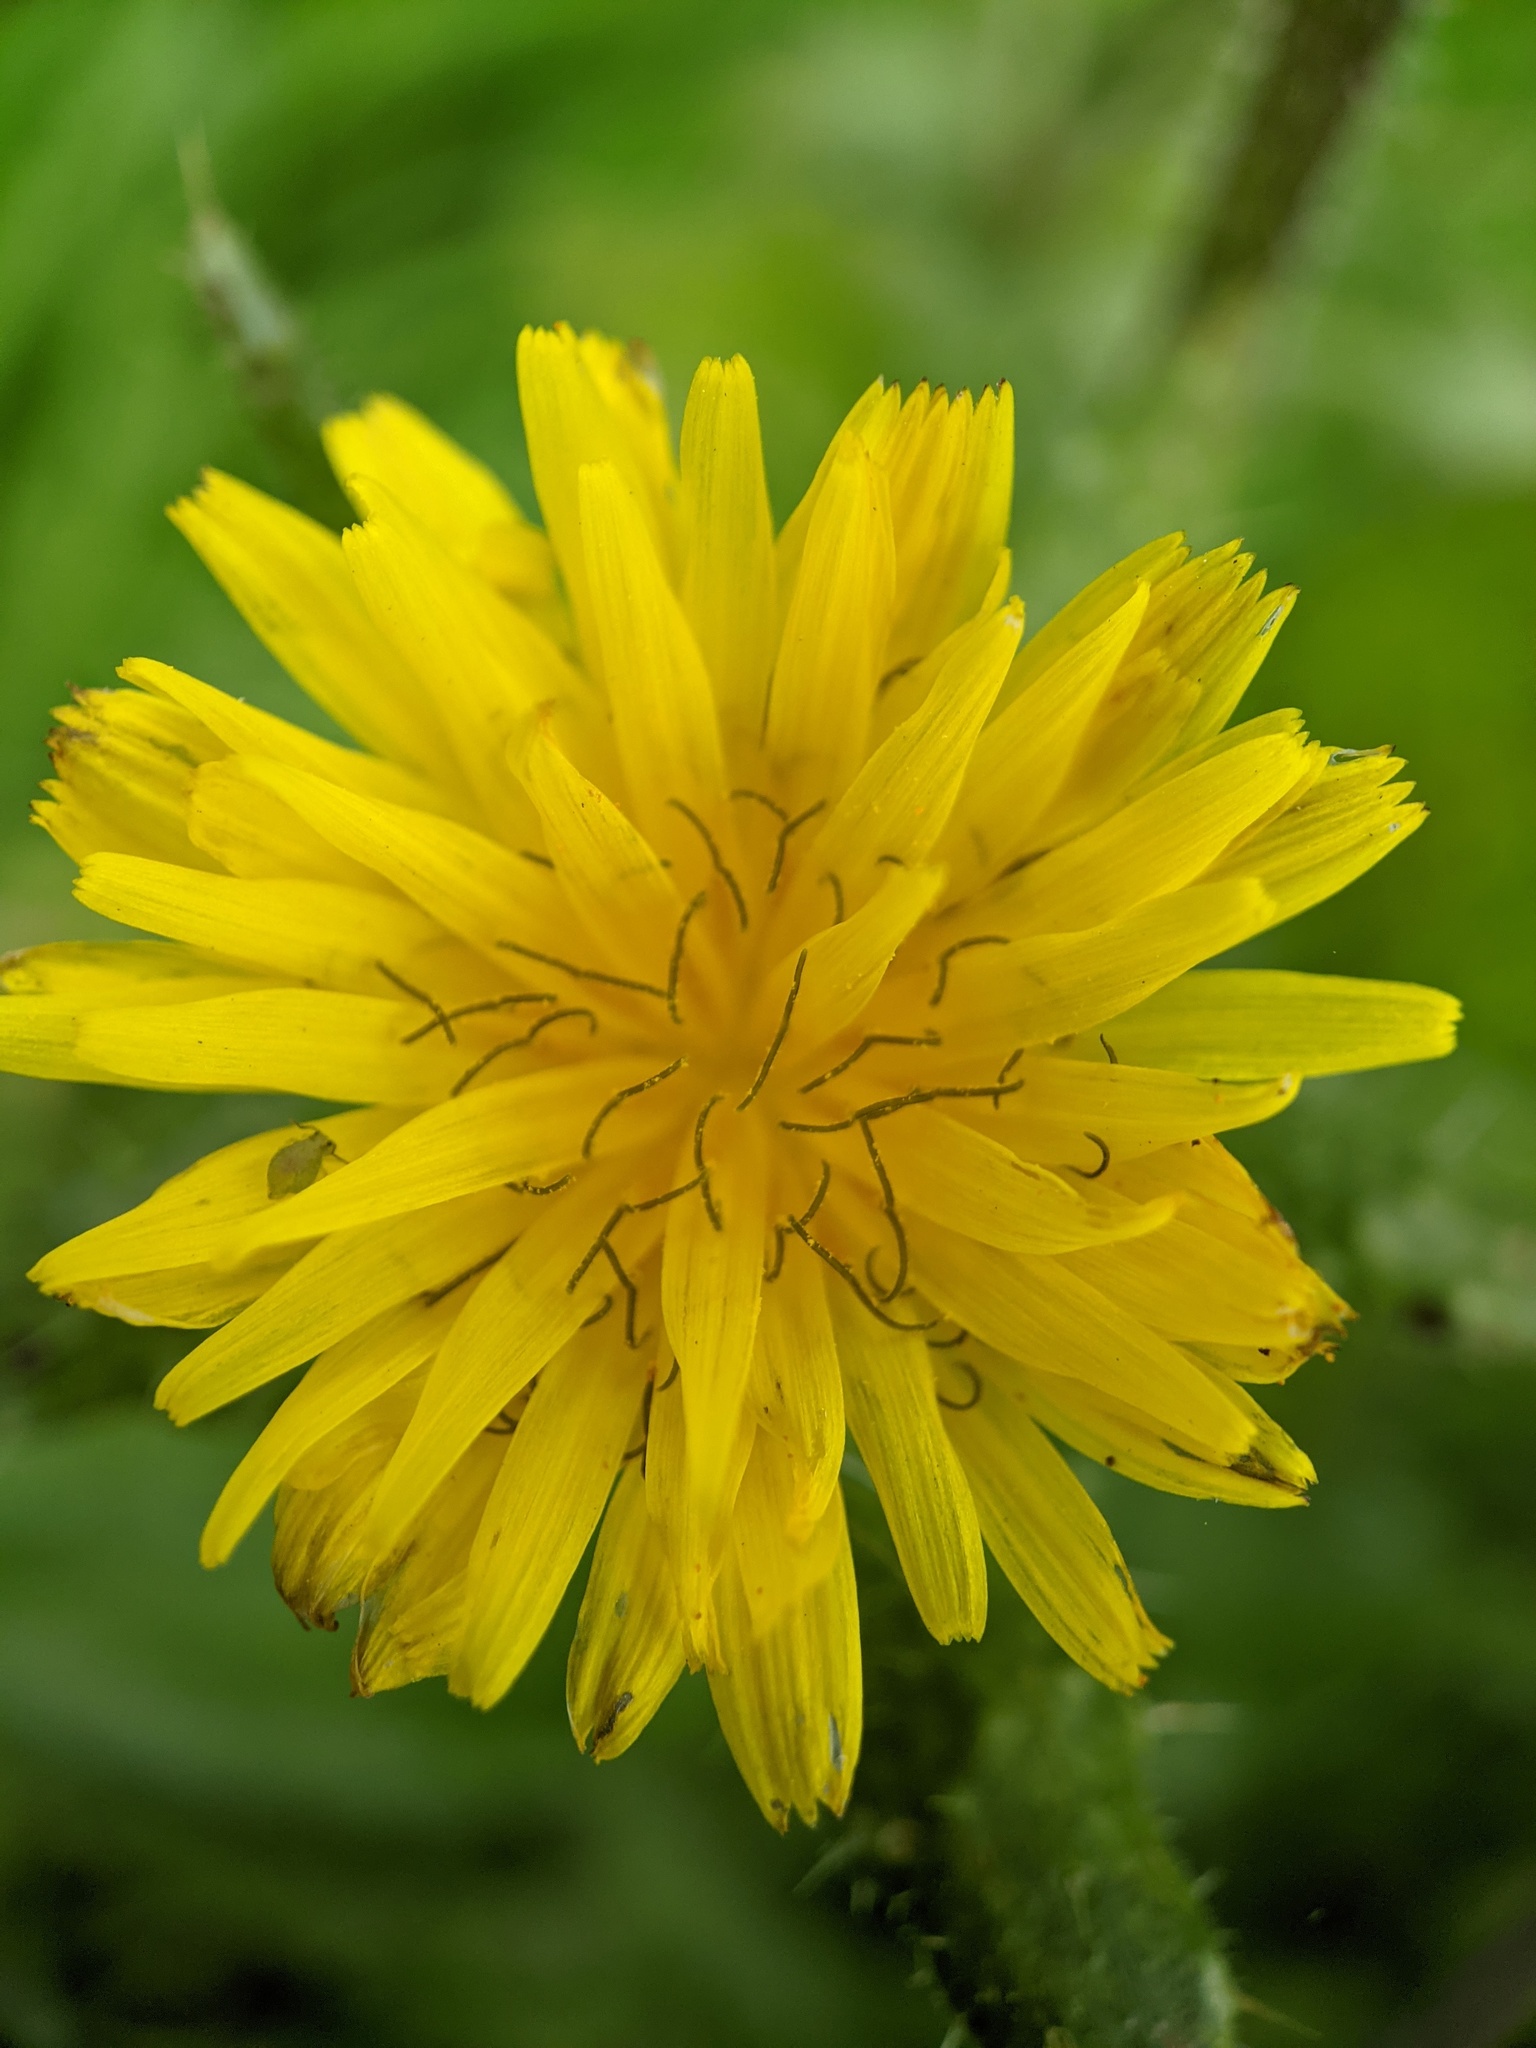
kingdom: Plantae
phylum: Tracheophyta
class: Magnoliopsida
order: Asterales
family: Asteraceae
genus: Helminthotheca
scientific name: Helminthotheca echioides
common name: Ox-tongue
